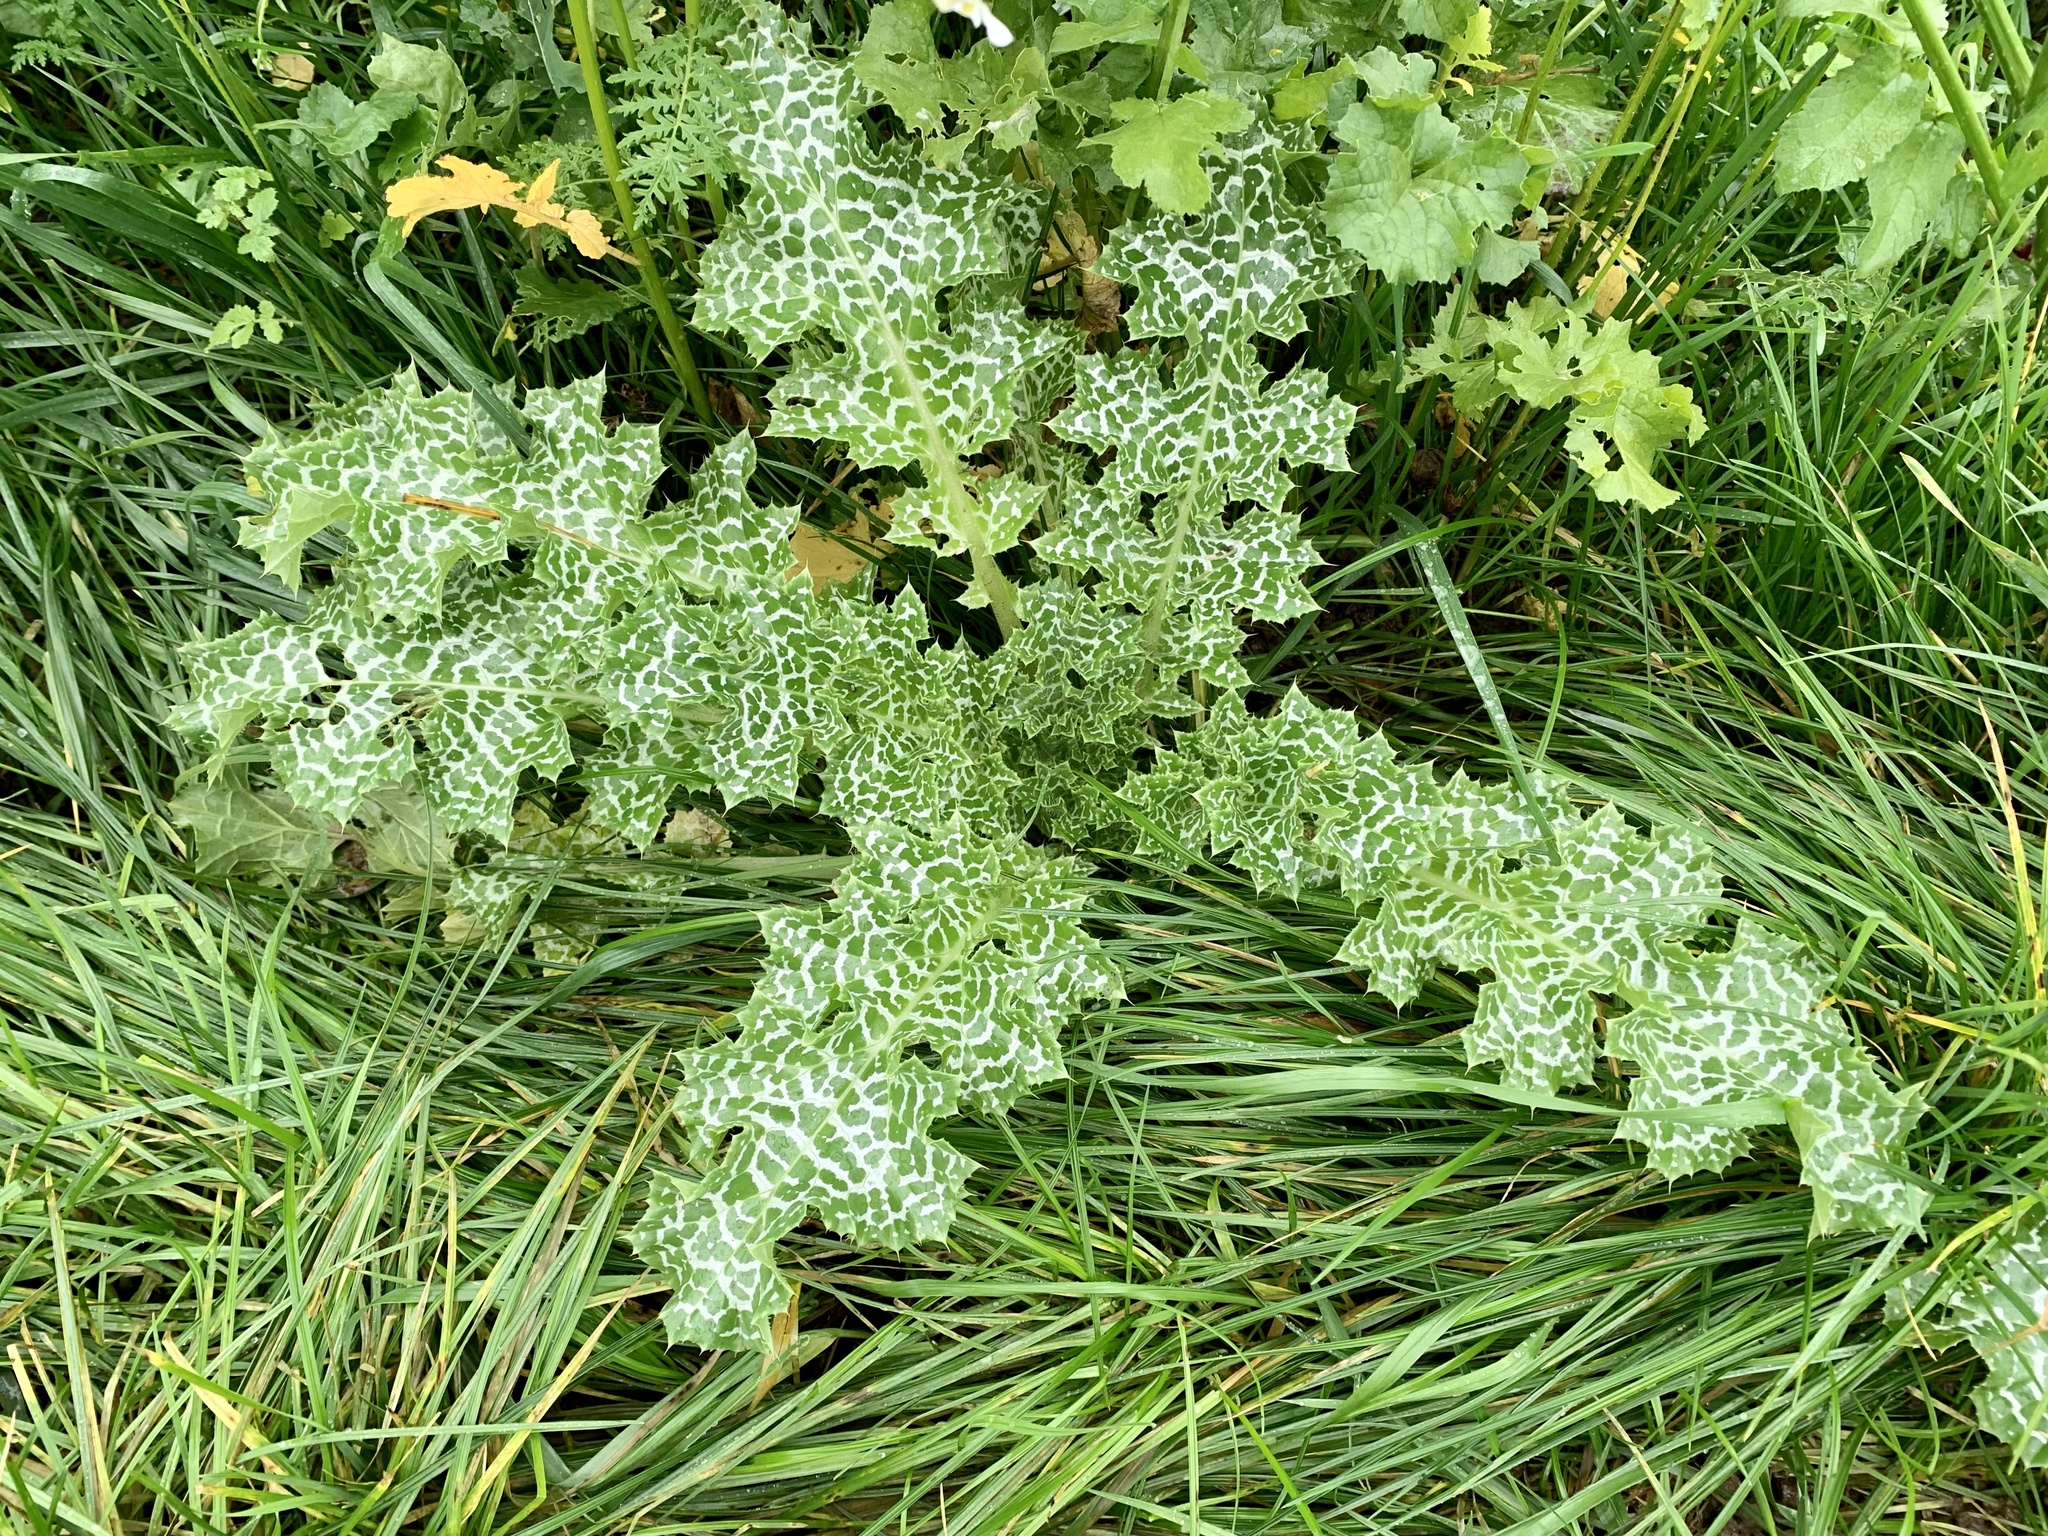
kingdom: Plantae
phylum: Tracheophyta
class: Magnoliopsida
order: Asterales
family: Asteraceae
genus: Silybum
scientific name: Silybum marianum
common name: Milk thistle
